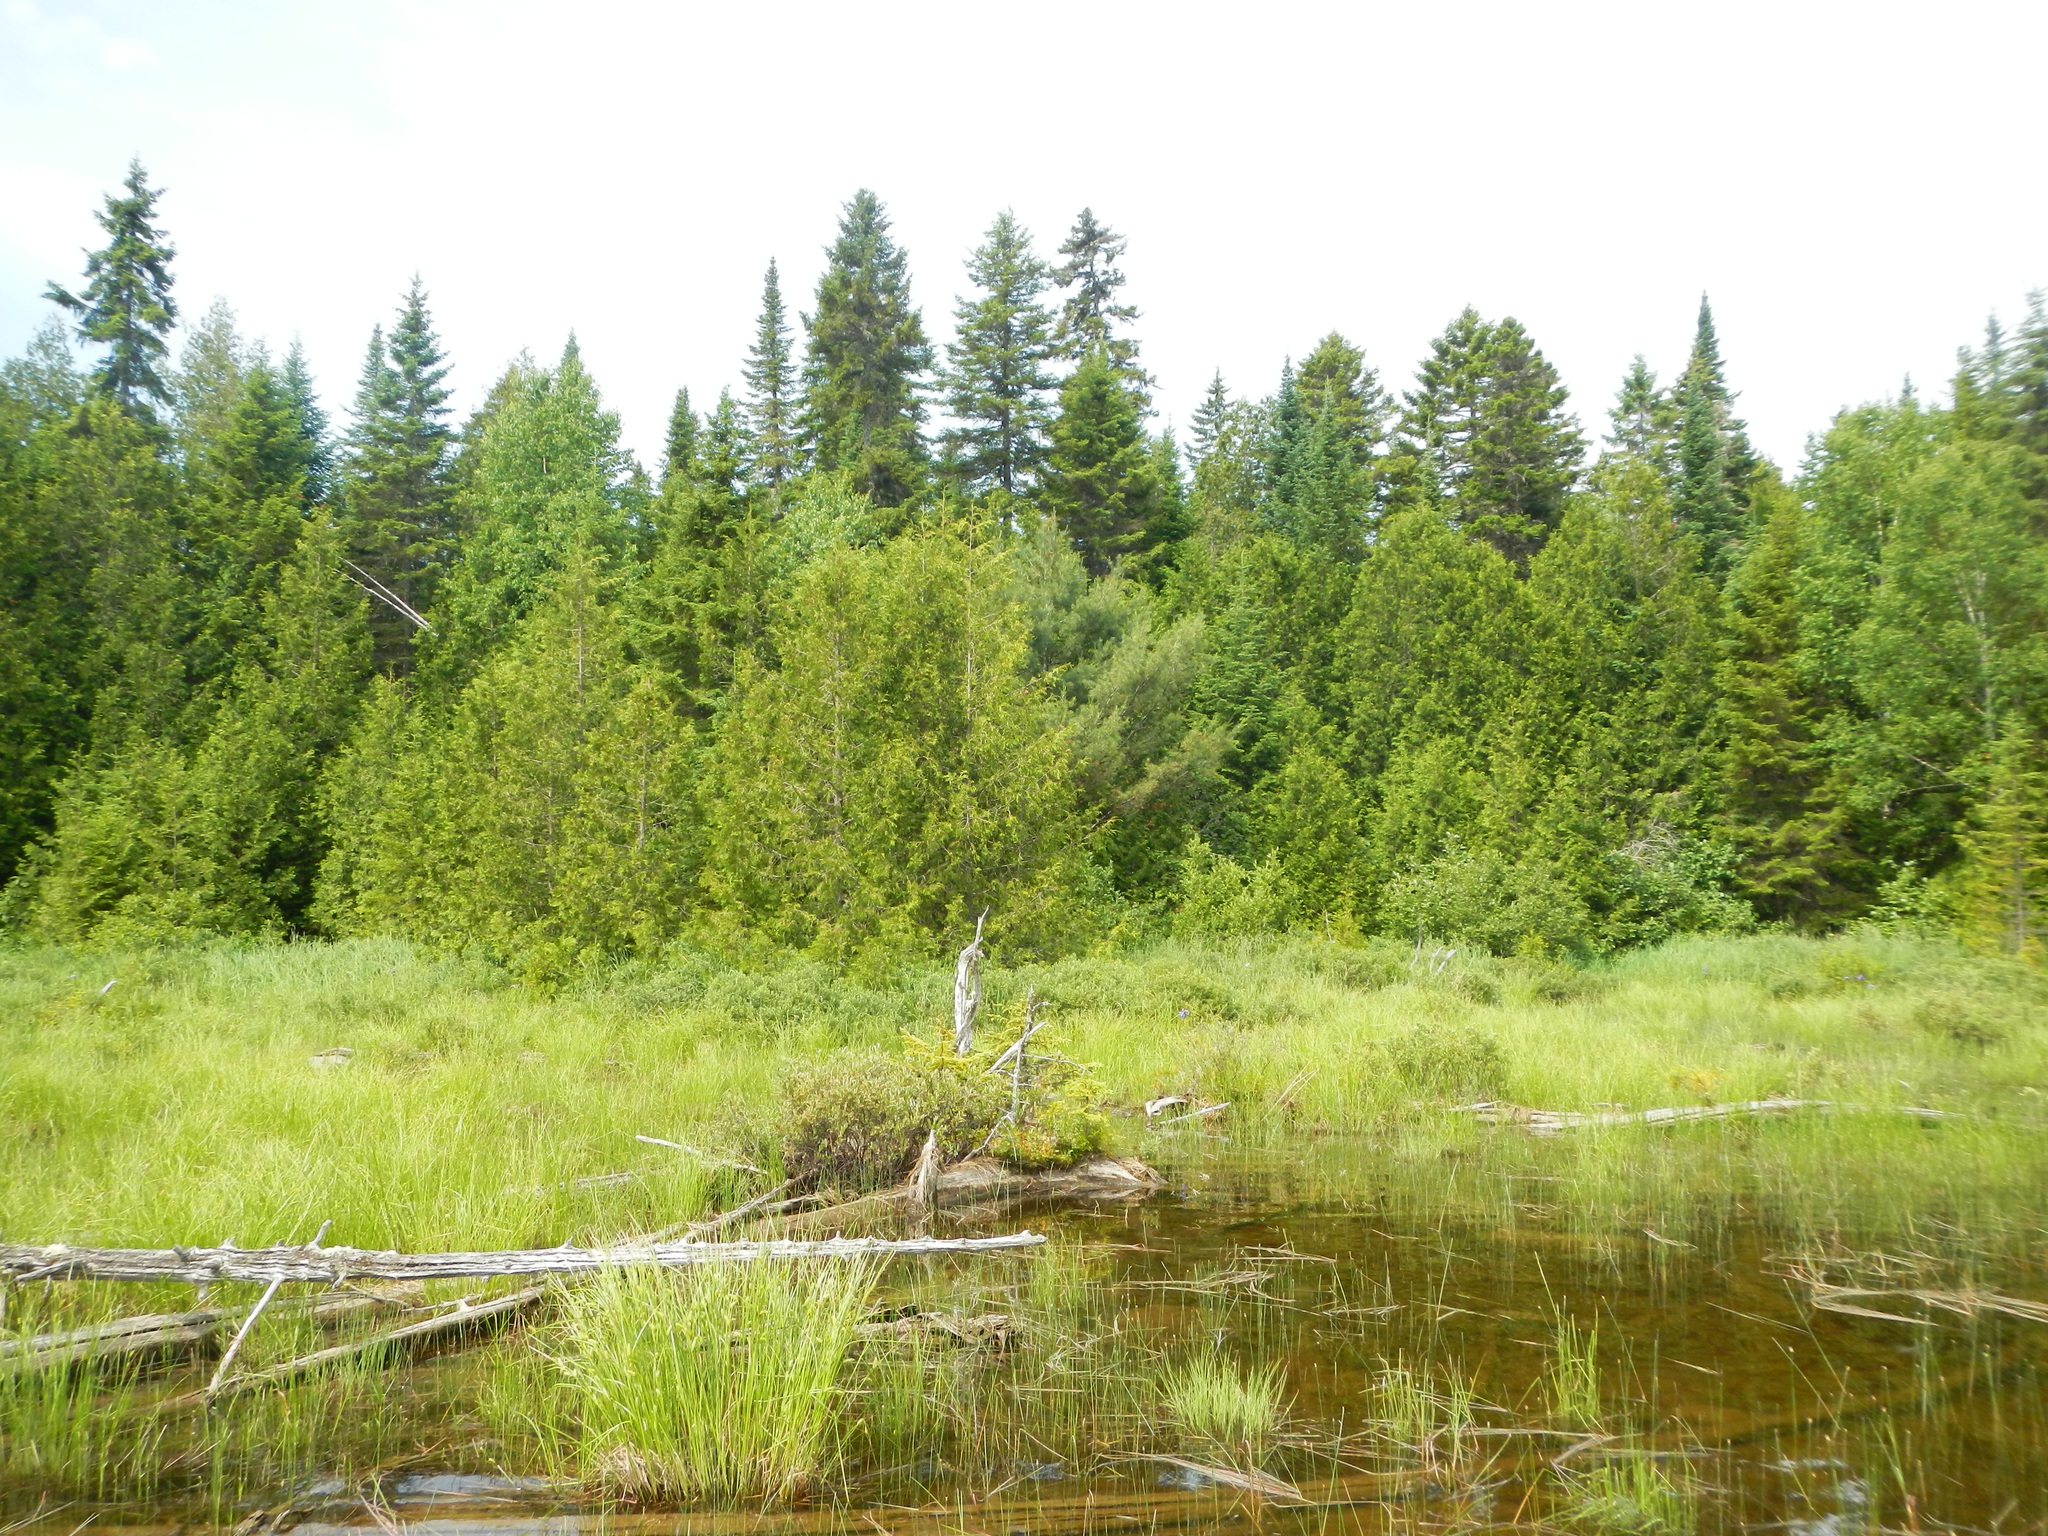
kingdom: Plantae
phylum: Tracheophyta
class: Liliopsida
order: Poales
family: Cyperaceae
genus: Carex
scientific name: Carex vesicaria
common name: Bladder-sedge
